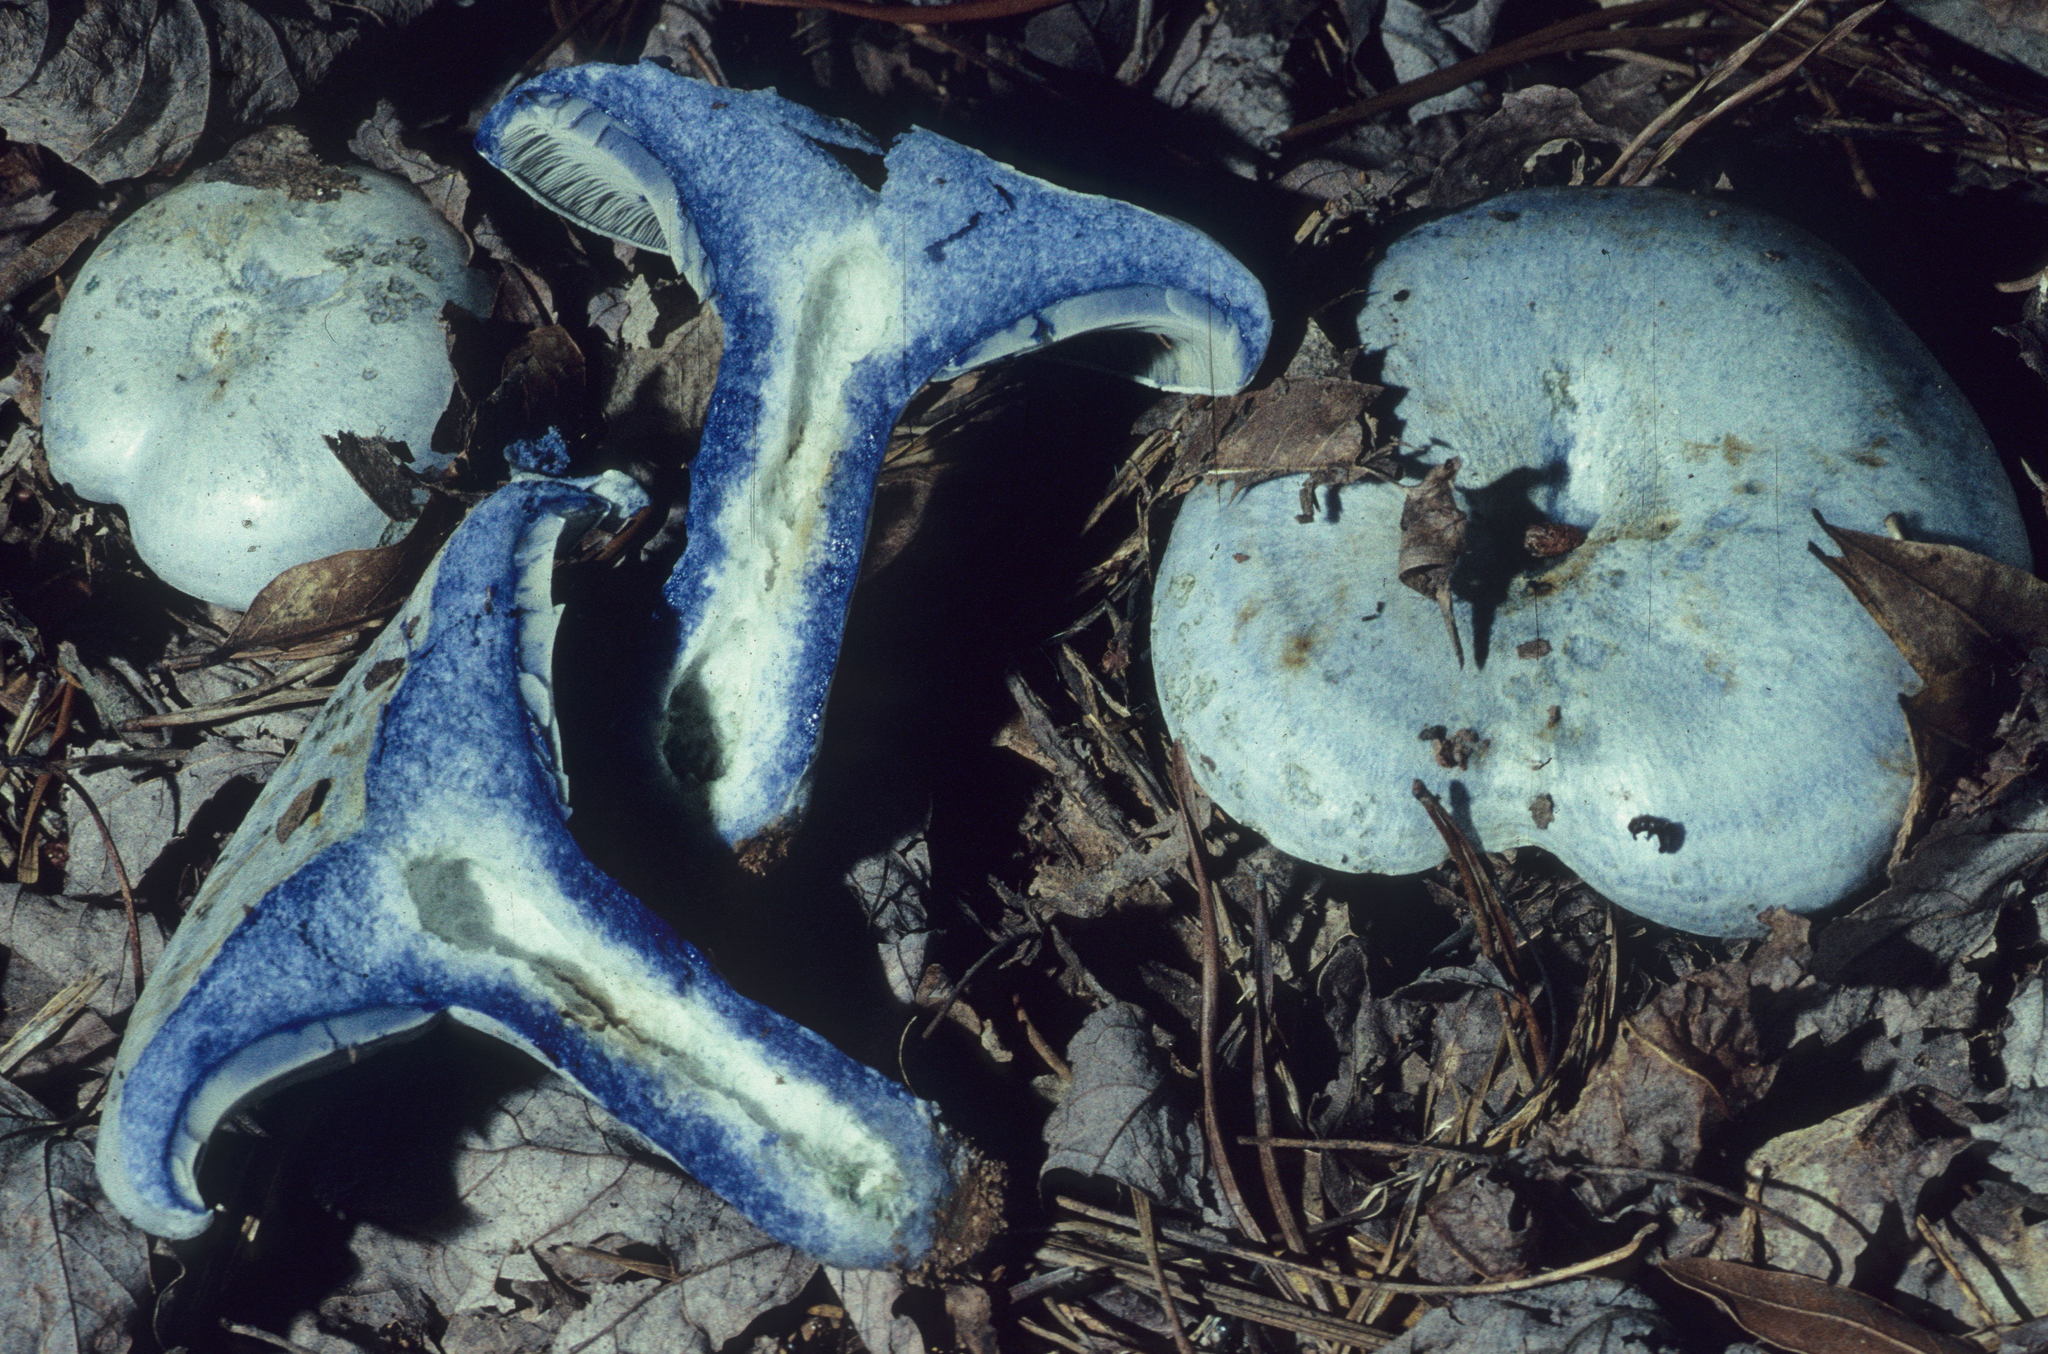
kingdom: Fungi
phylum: Basidiomycota
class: Agaricomycetes
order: Russulales
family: Russulaceae
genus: Lactarius
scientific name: Lactarius indigo
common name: Indigo milk cap
